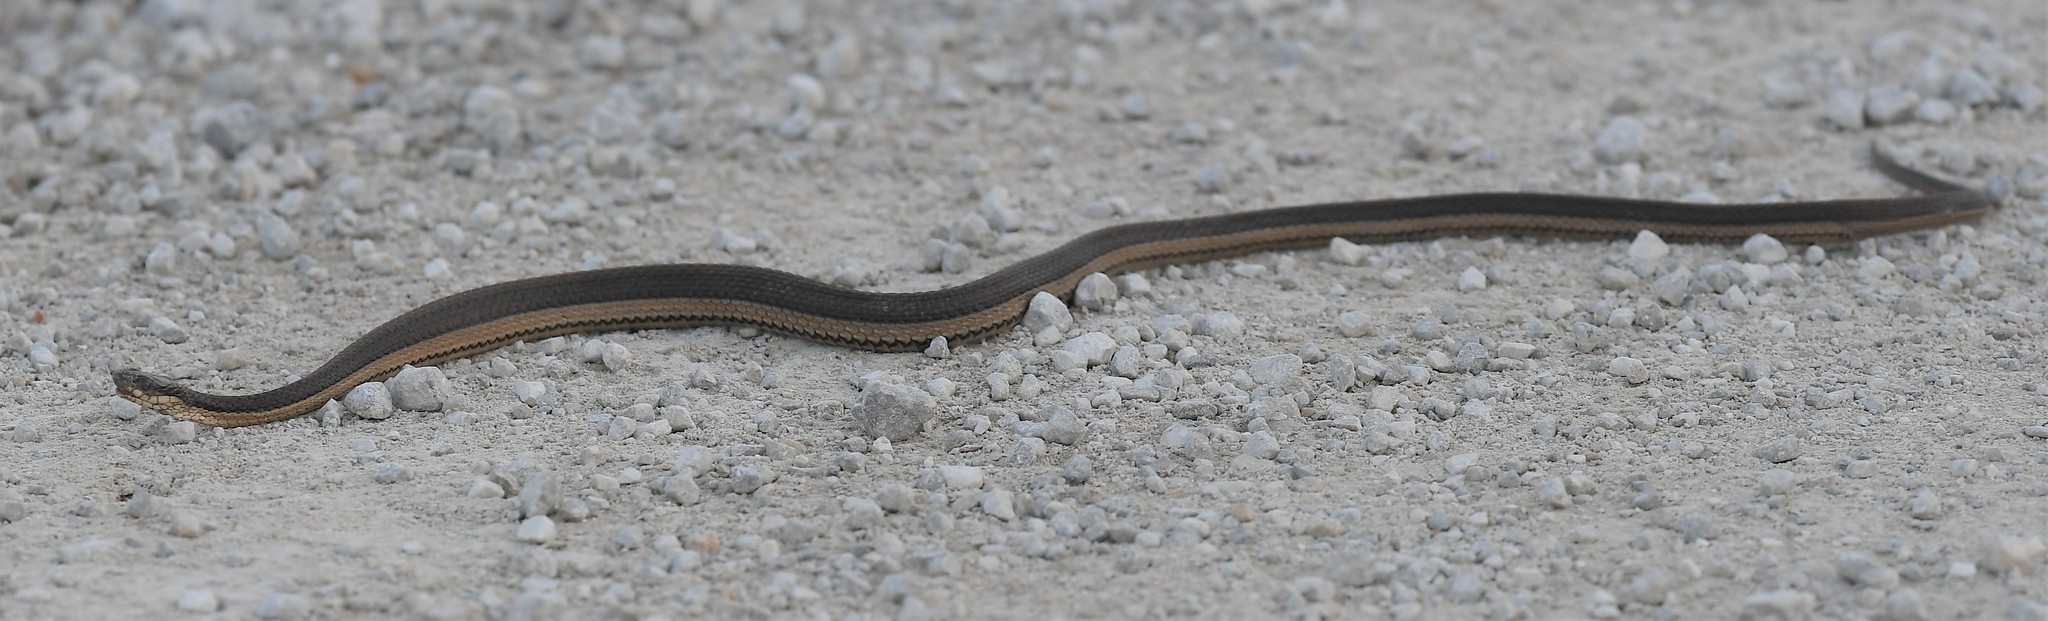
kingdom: Animalia
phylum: Chordata
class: Squamata
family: Colubridae
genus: Regina
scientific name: Regina grahamii
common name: Graham's crayfish snake
